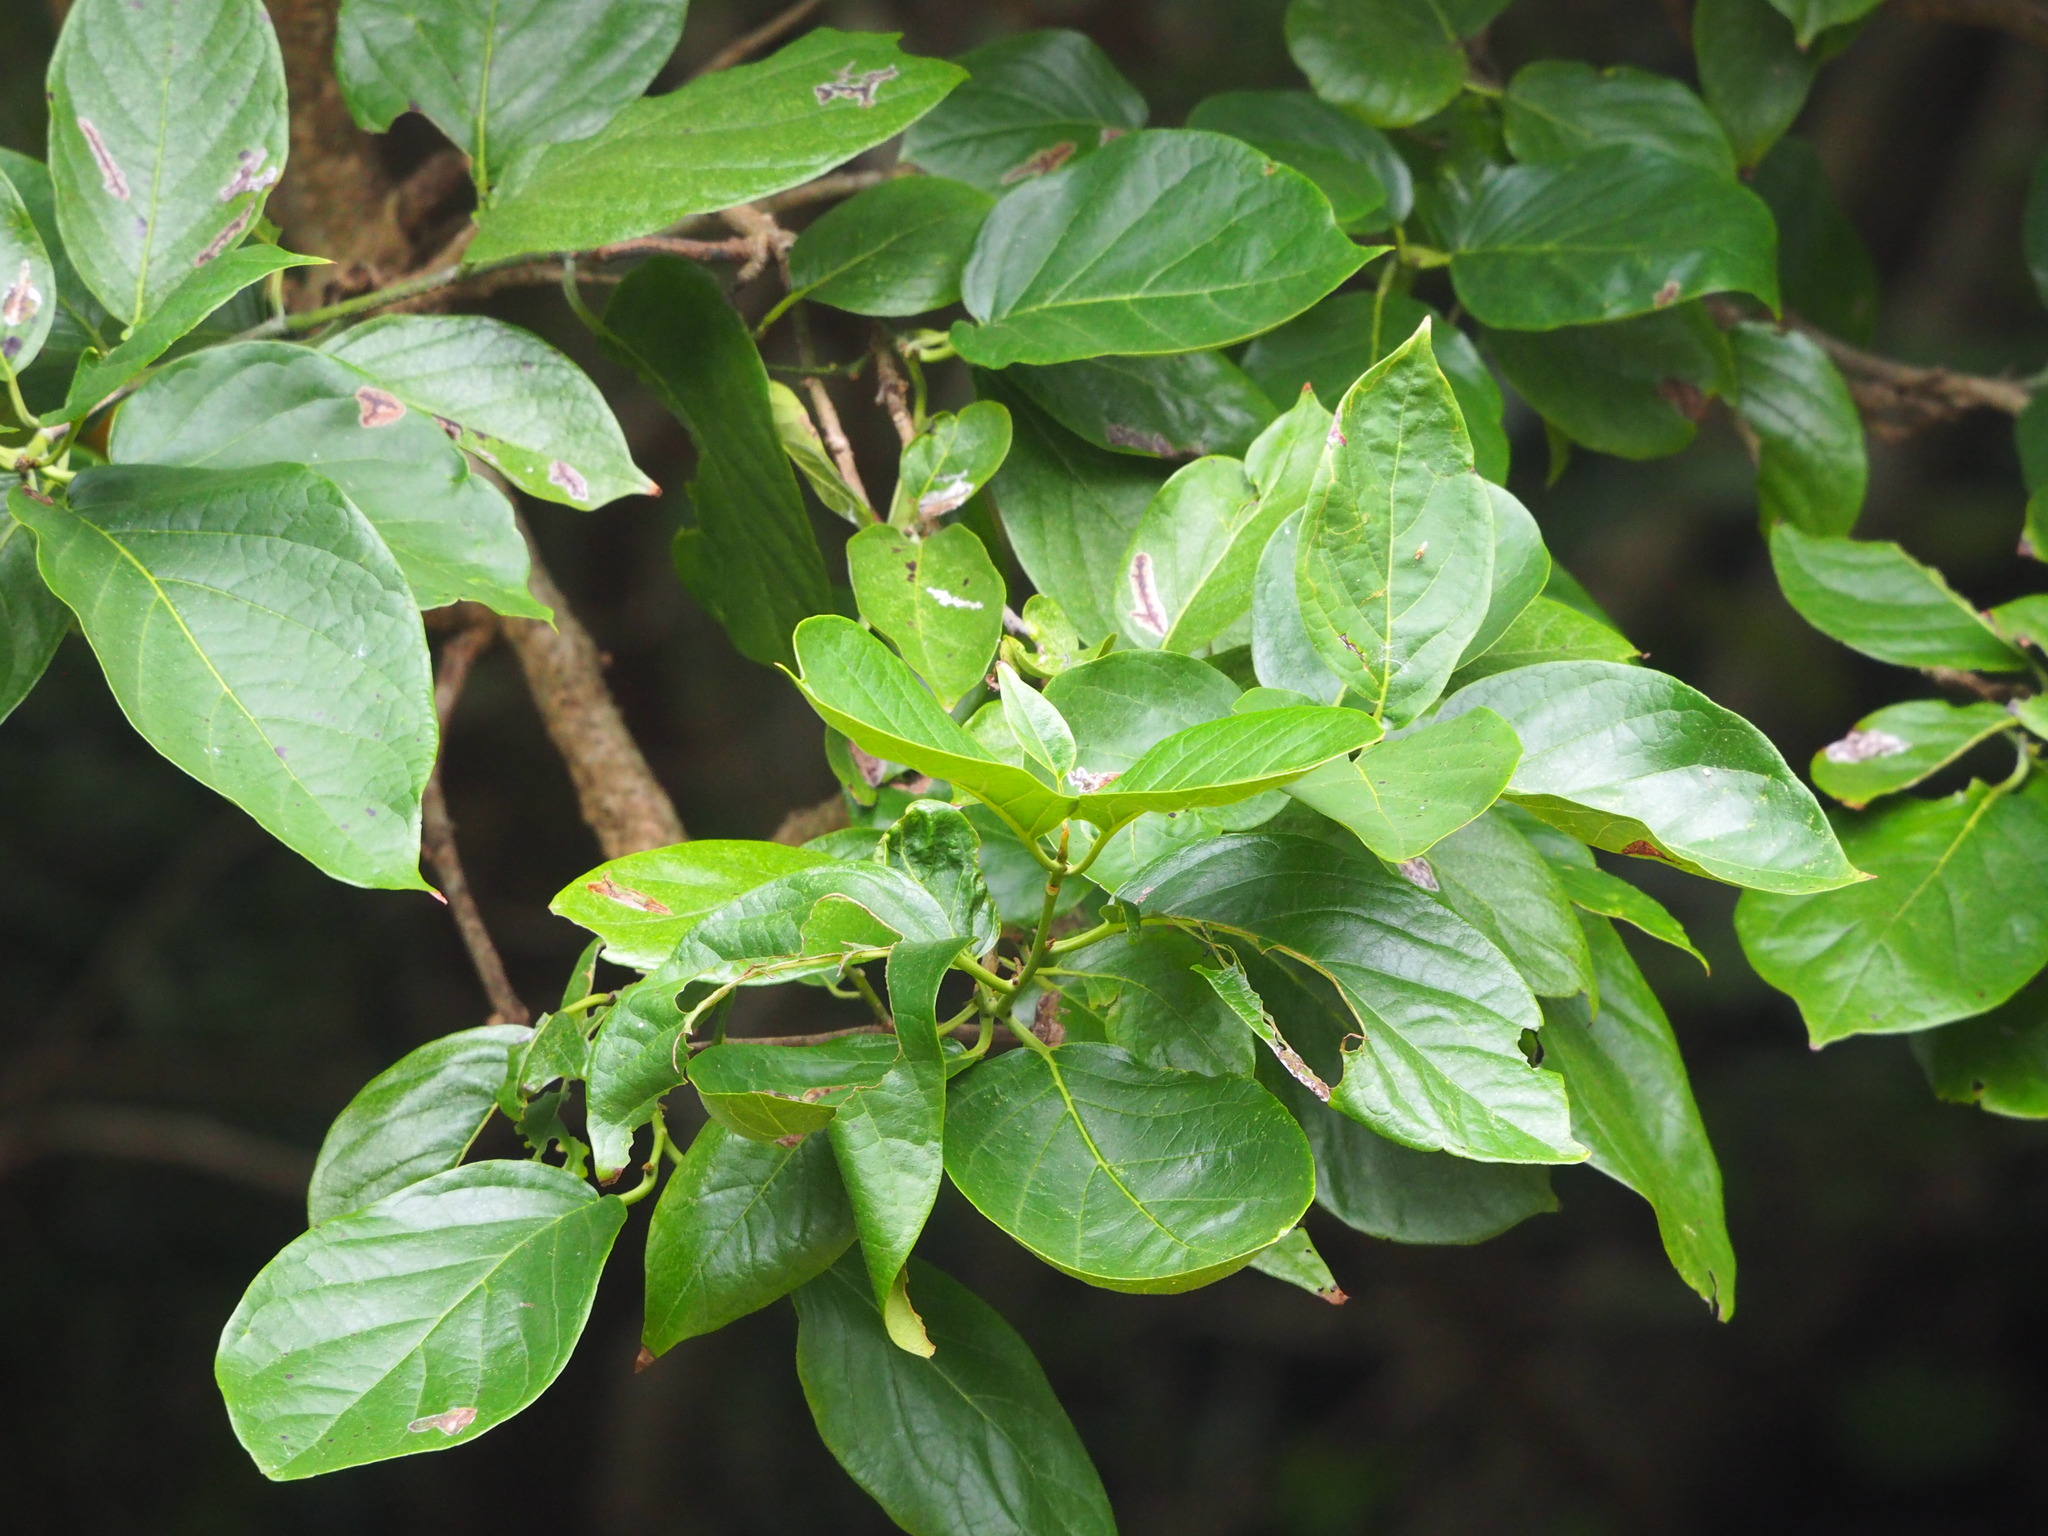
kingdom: Plantae
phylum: Tracheophyta
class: Magnoliopsida
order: Boraginales
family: Ehretiaceae
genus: Ehretia
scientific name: Ehretia resinosa
